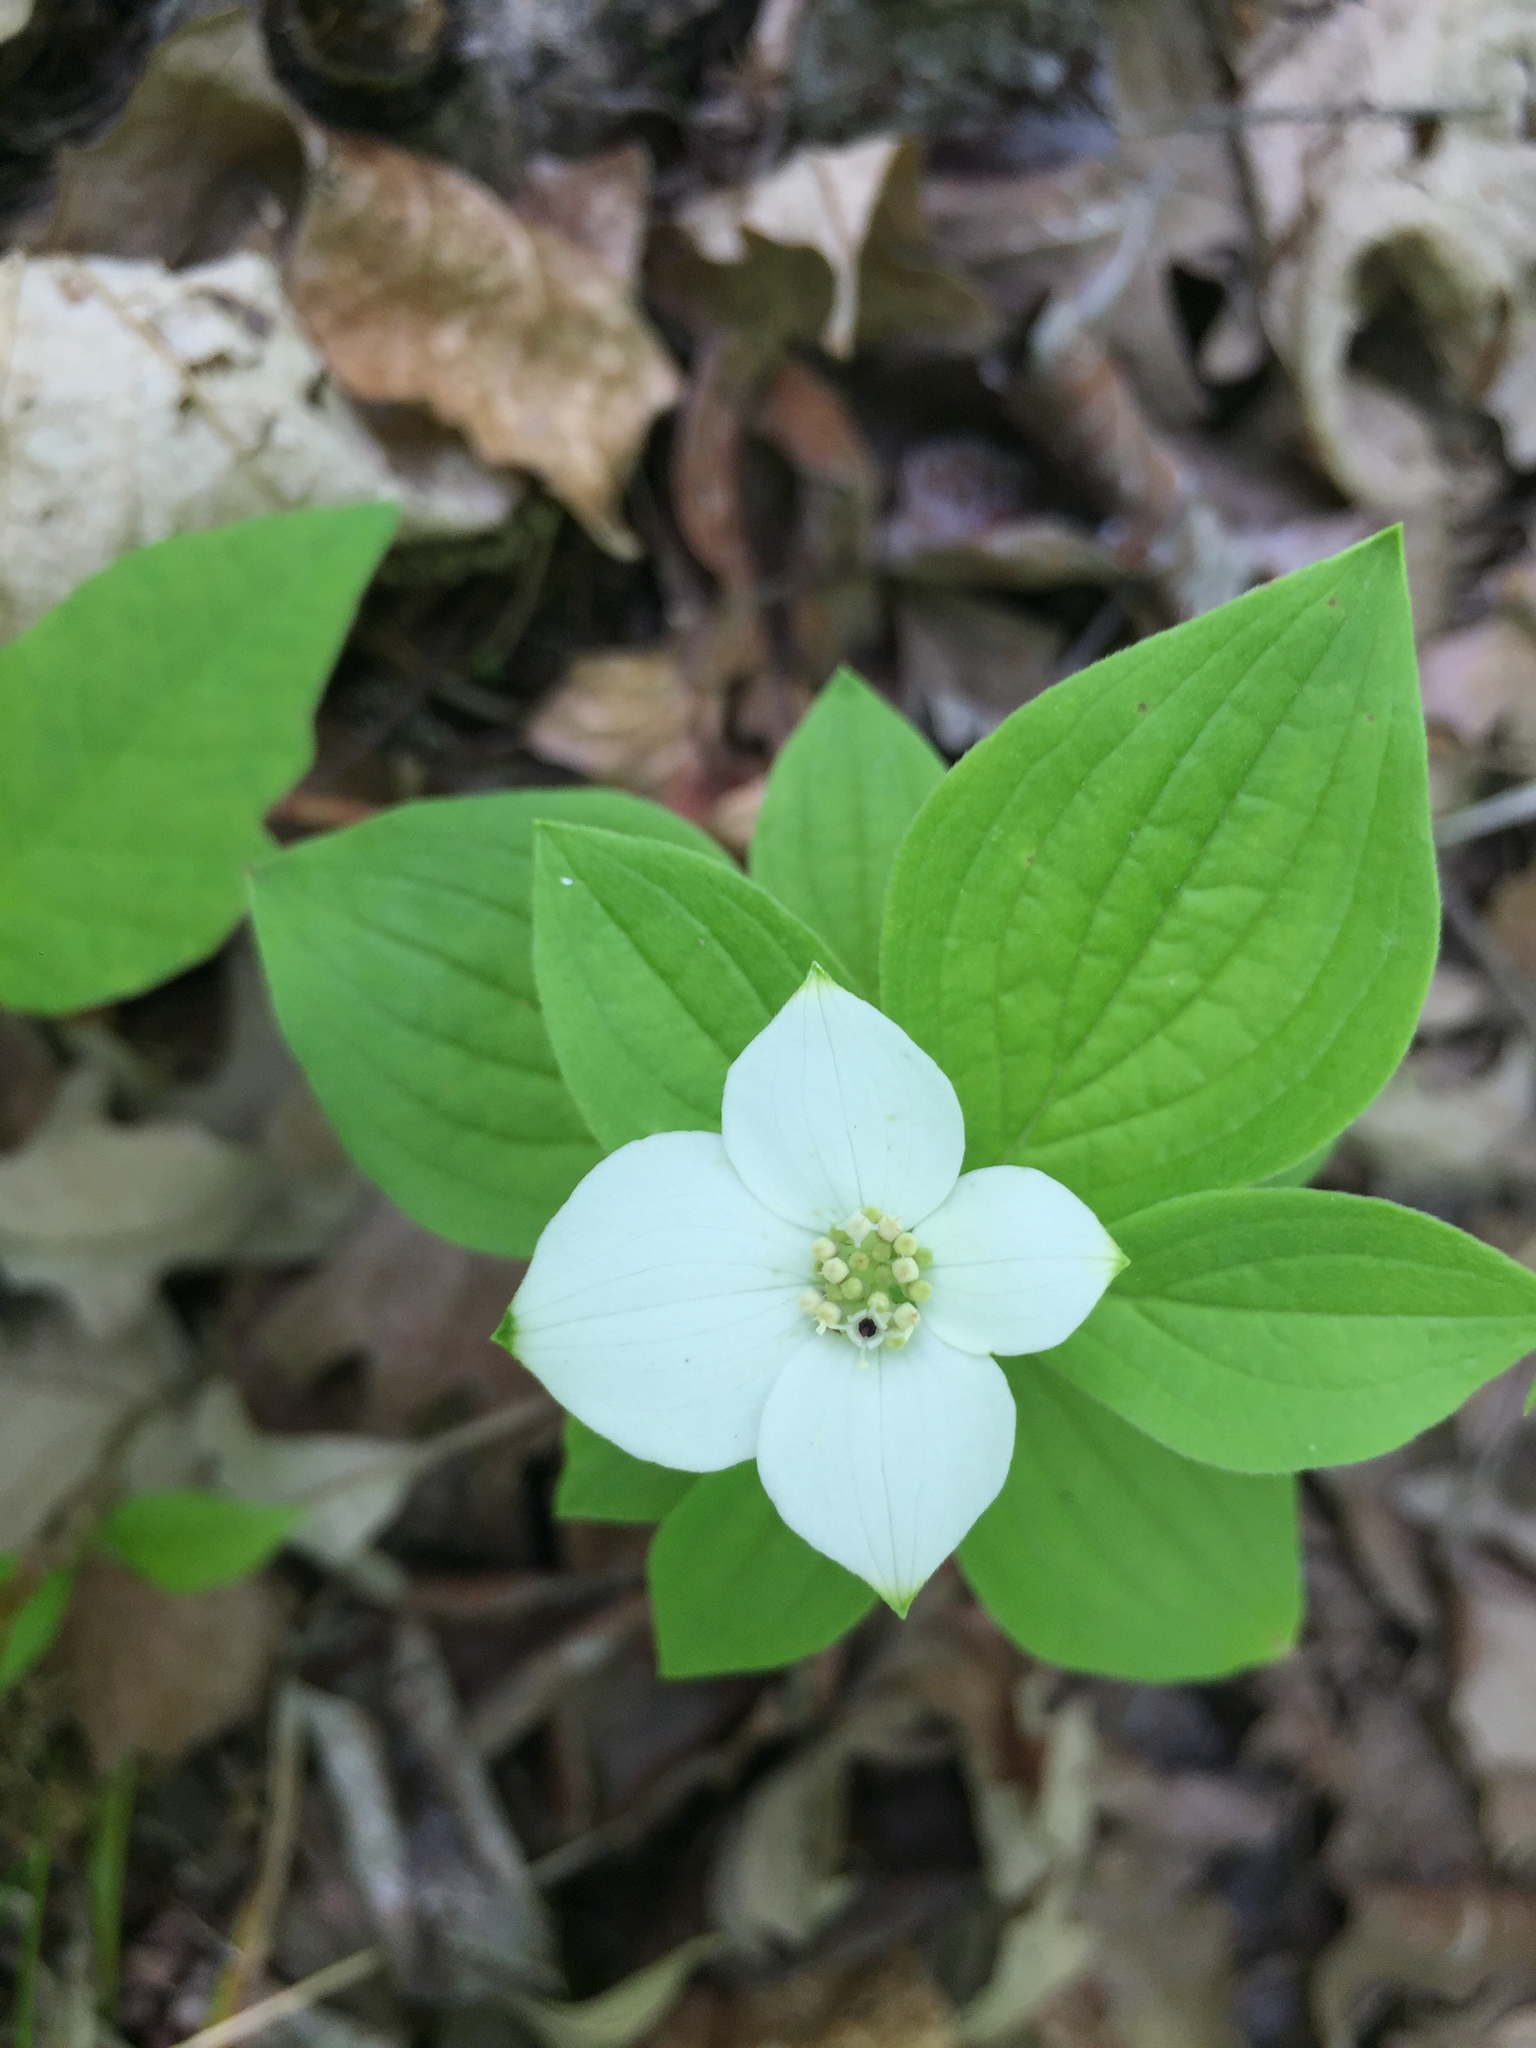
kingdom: Plantae
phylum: Tracheophyta
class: Magnoliopsida
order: Cornales
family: Cornaceae
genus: Cornus
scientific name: Cornus canadensis
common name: Creeping dogwood
